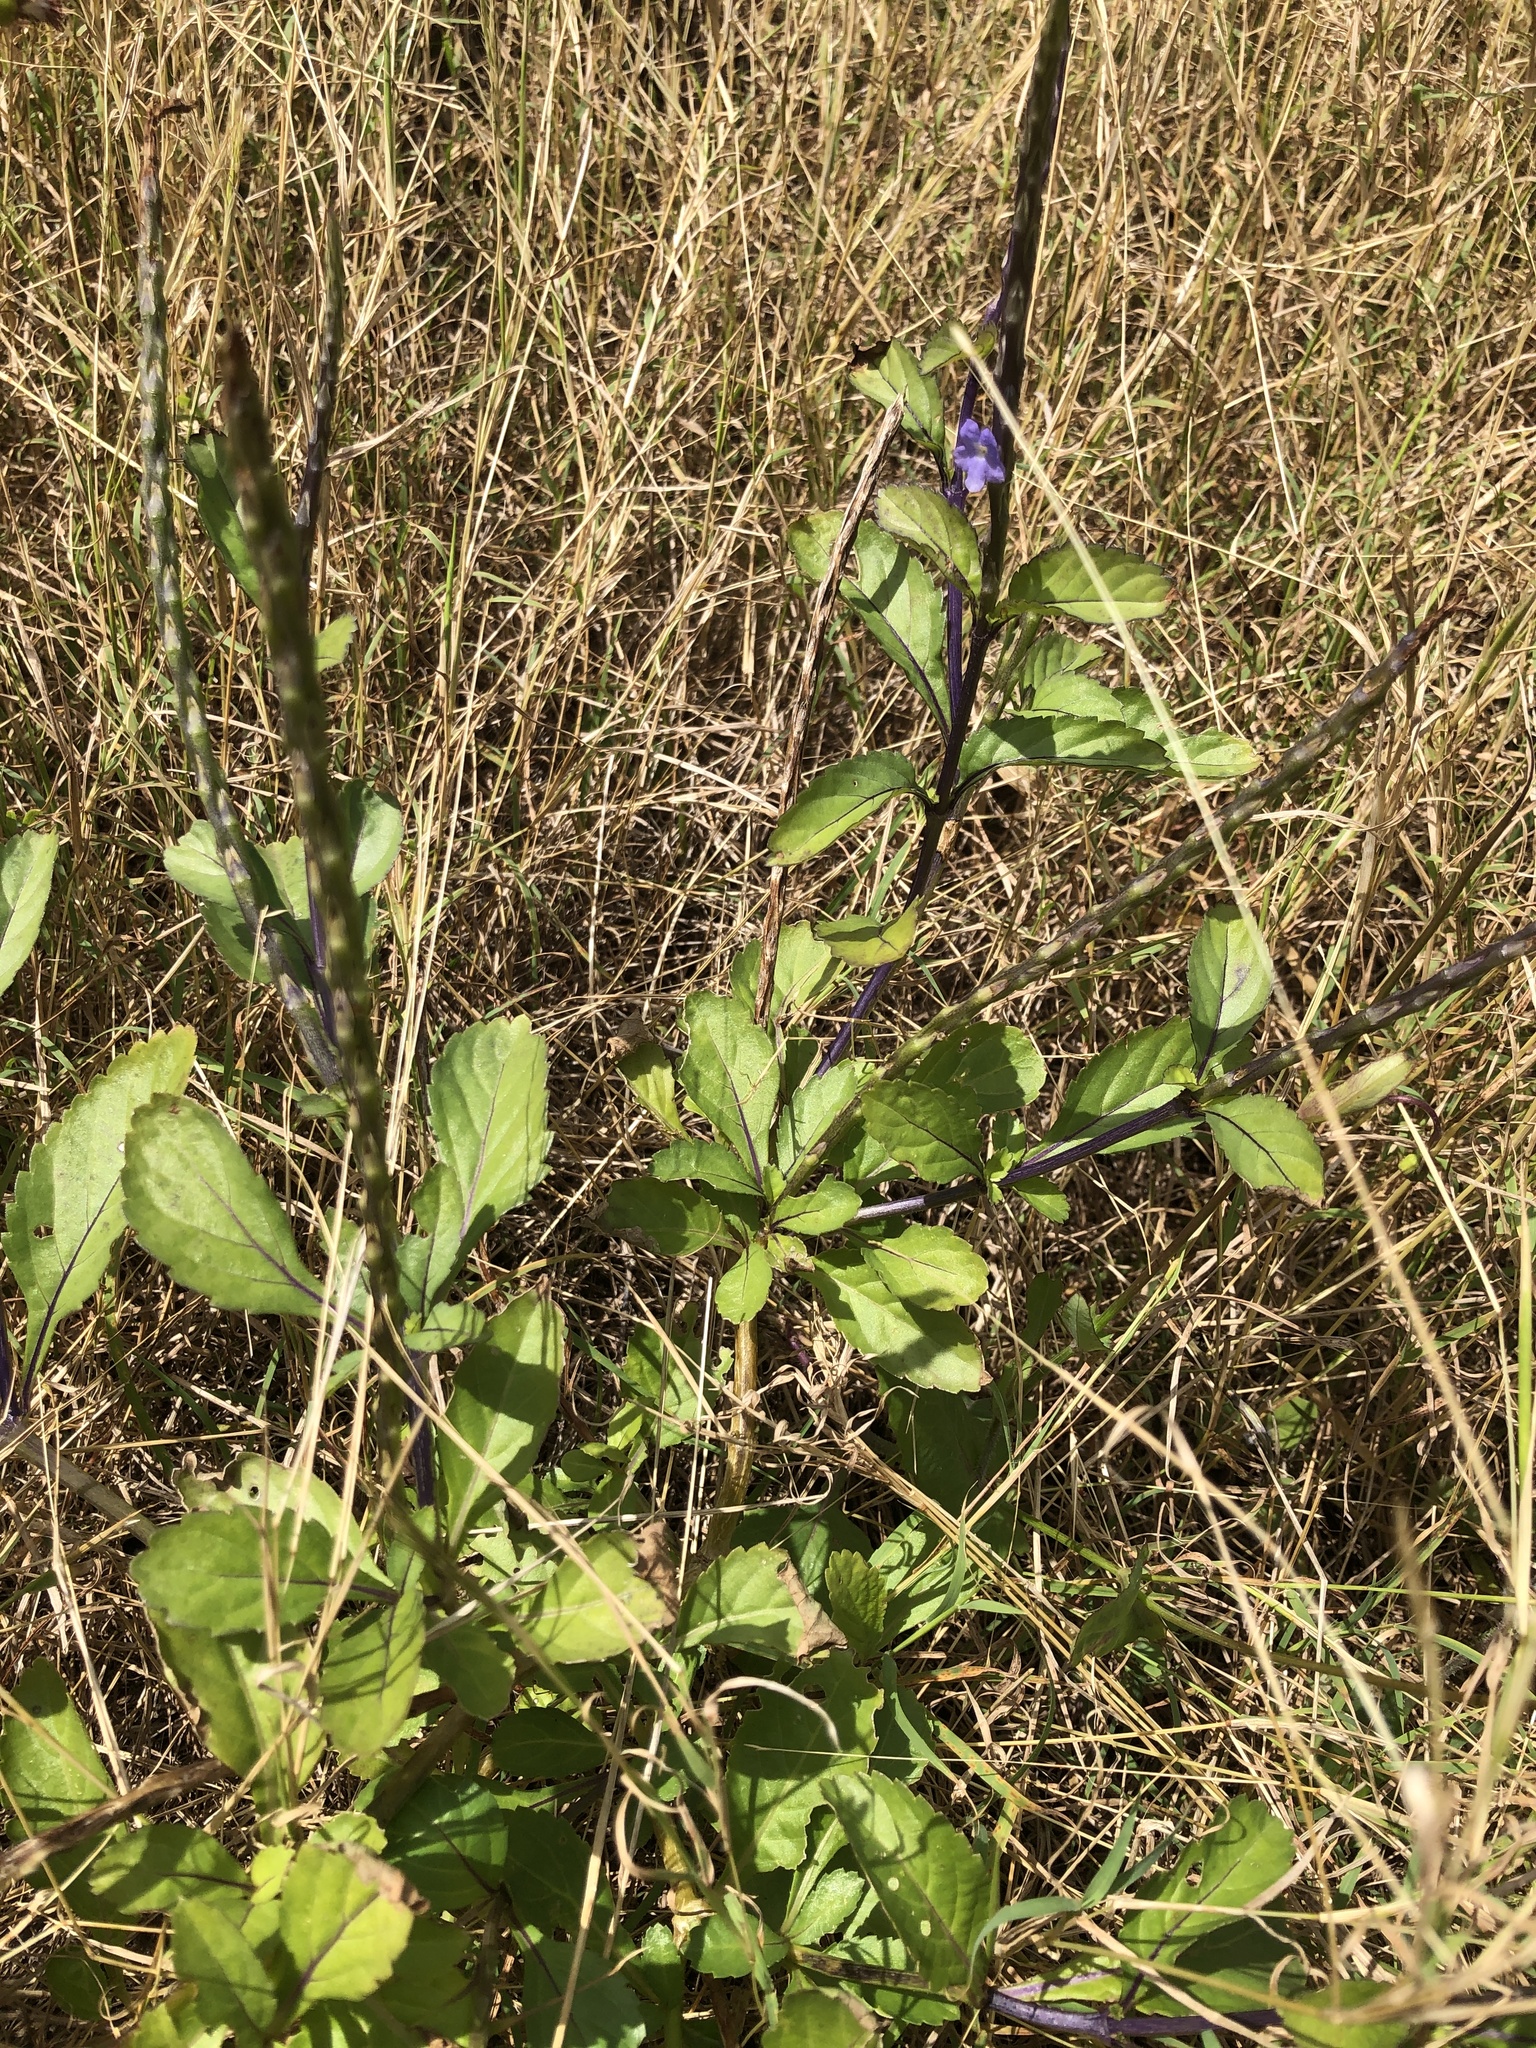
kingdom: Plantae
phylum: Tracheophyta
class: Magnoliopsida
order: Lamiales
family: Verbenaceae
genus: Stachytarpheta
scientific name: Stachytarpheta jamaicensis
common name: Light-blue snakeweed
